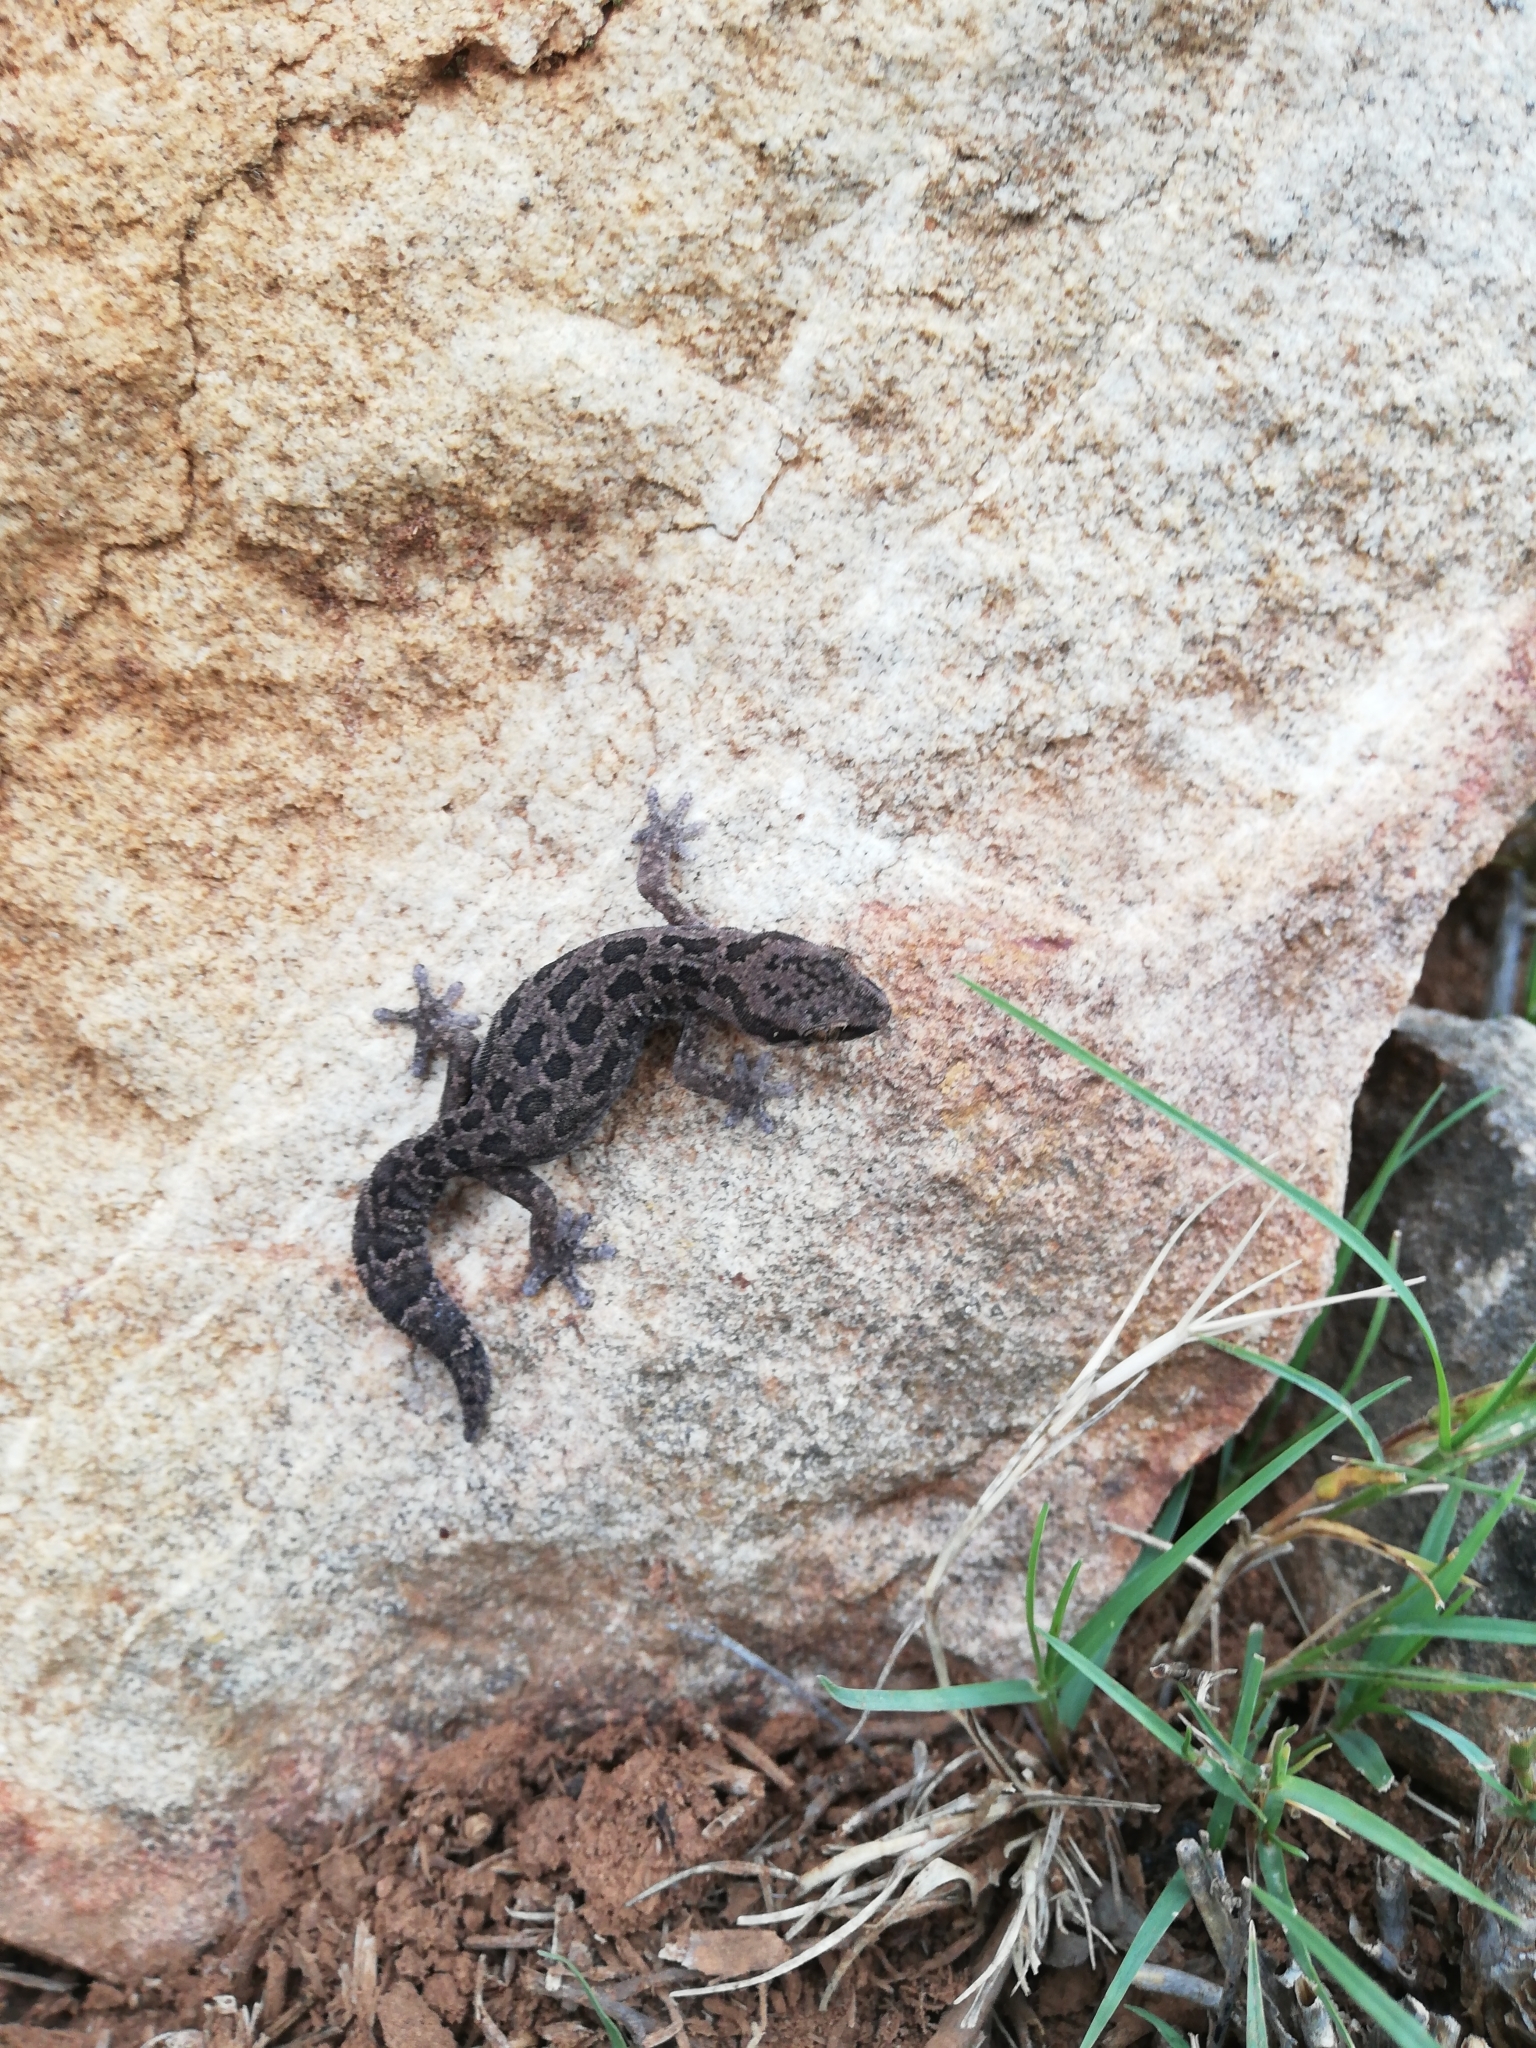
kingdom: Animalia
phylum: Chordata
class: Squamata
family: Gekkonidae
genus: Pachydactylus
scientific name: Pachydactylus maculatus
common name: Spotted thick-toed gecko
